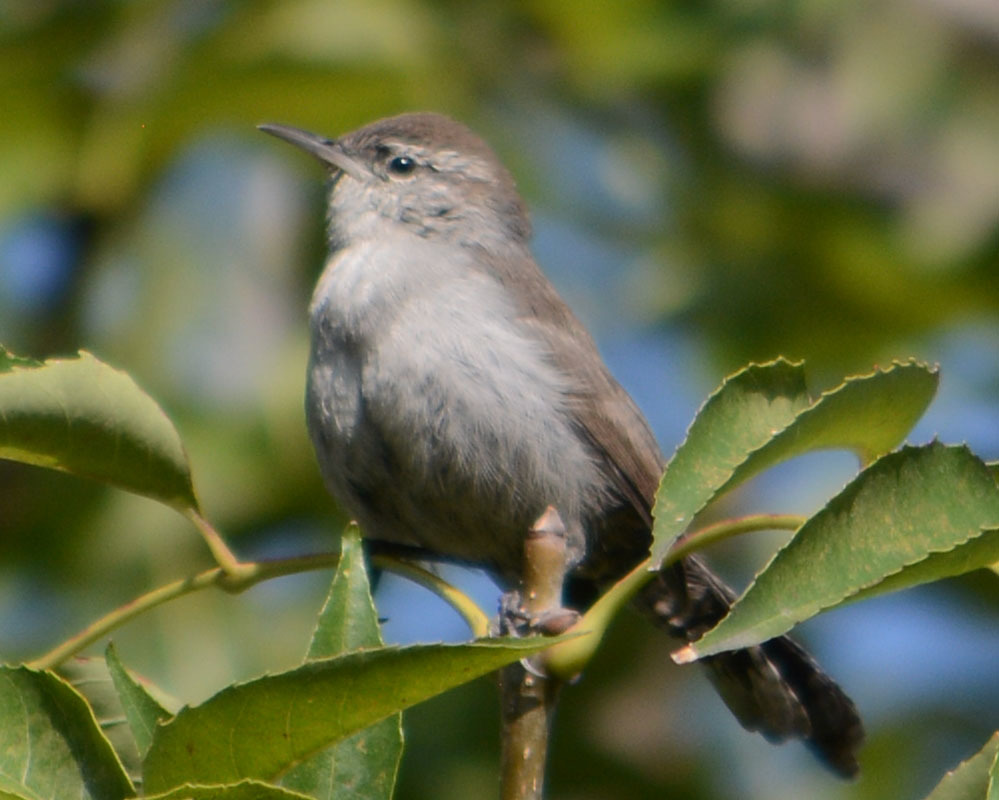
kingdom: Animalia
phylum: Chordata
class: Aves
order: Passeriformes
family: Troglodytidae
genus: Thryomanes
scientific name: Thryomanes bewickii
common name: Bewick's wren
